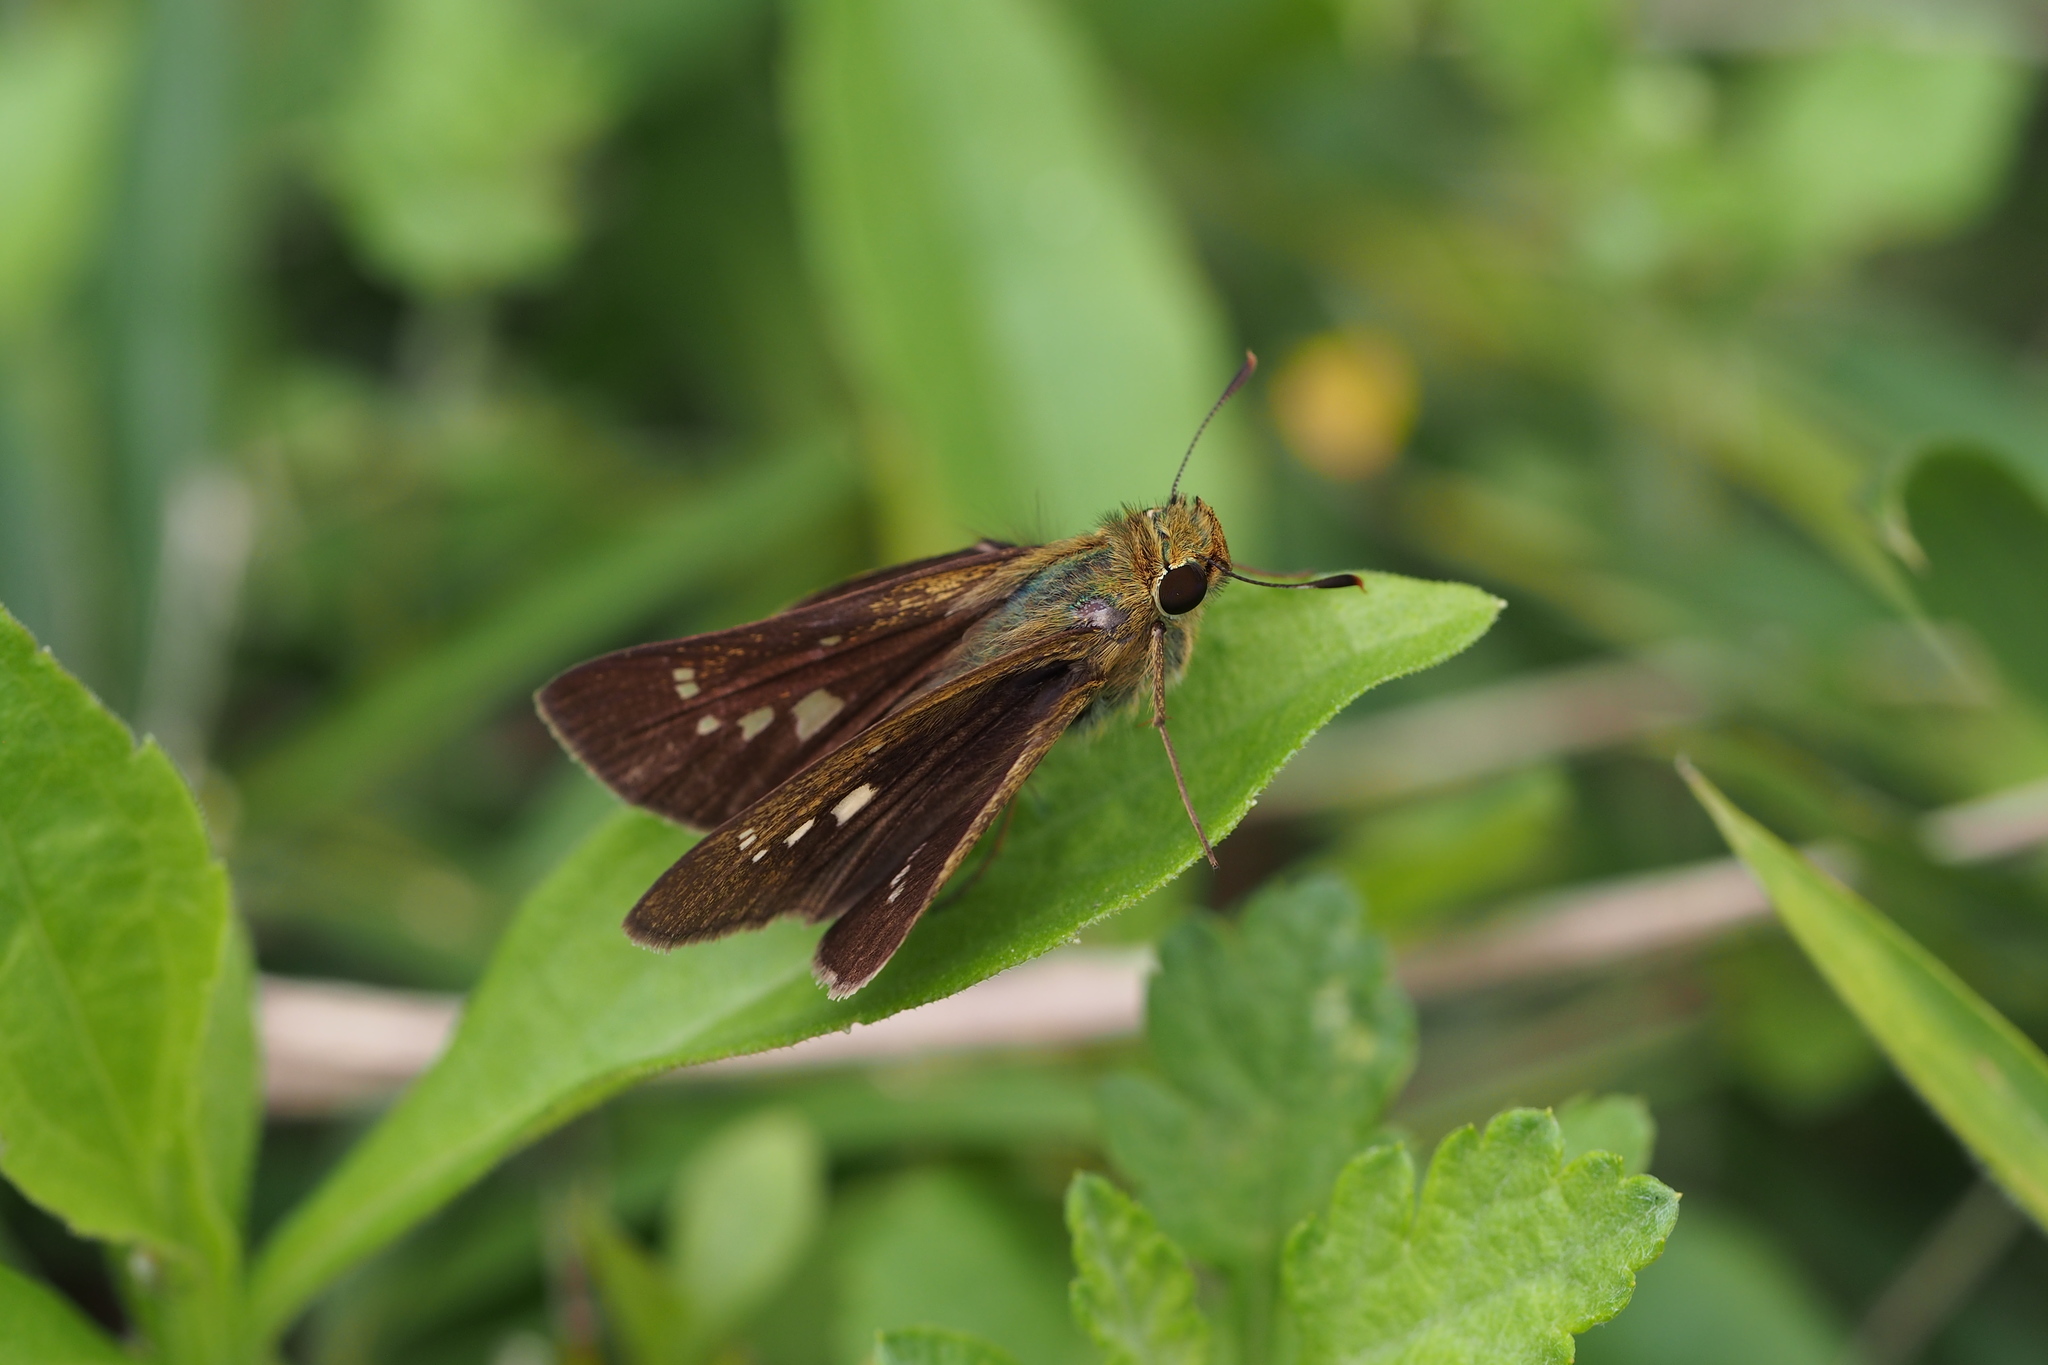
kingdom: Animalia
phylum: Arthropoda
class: Insecta
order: Lepidoptera
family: Hesperiidae
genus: Parnara
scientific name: Parnara guttatus
